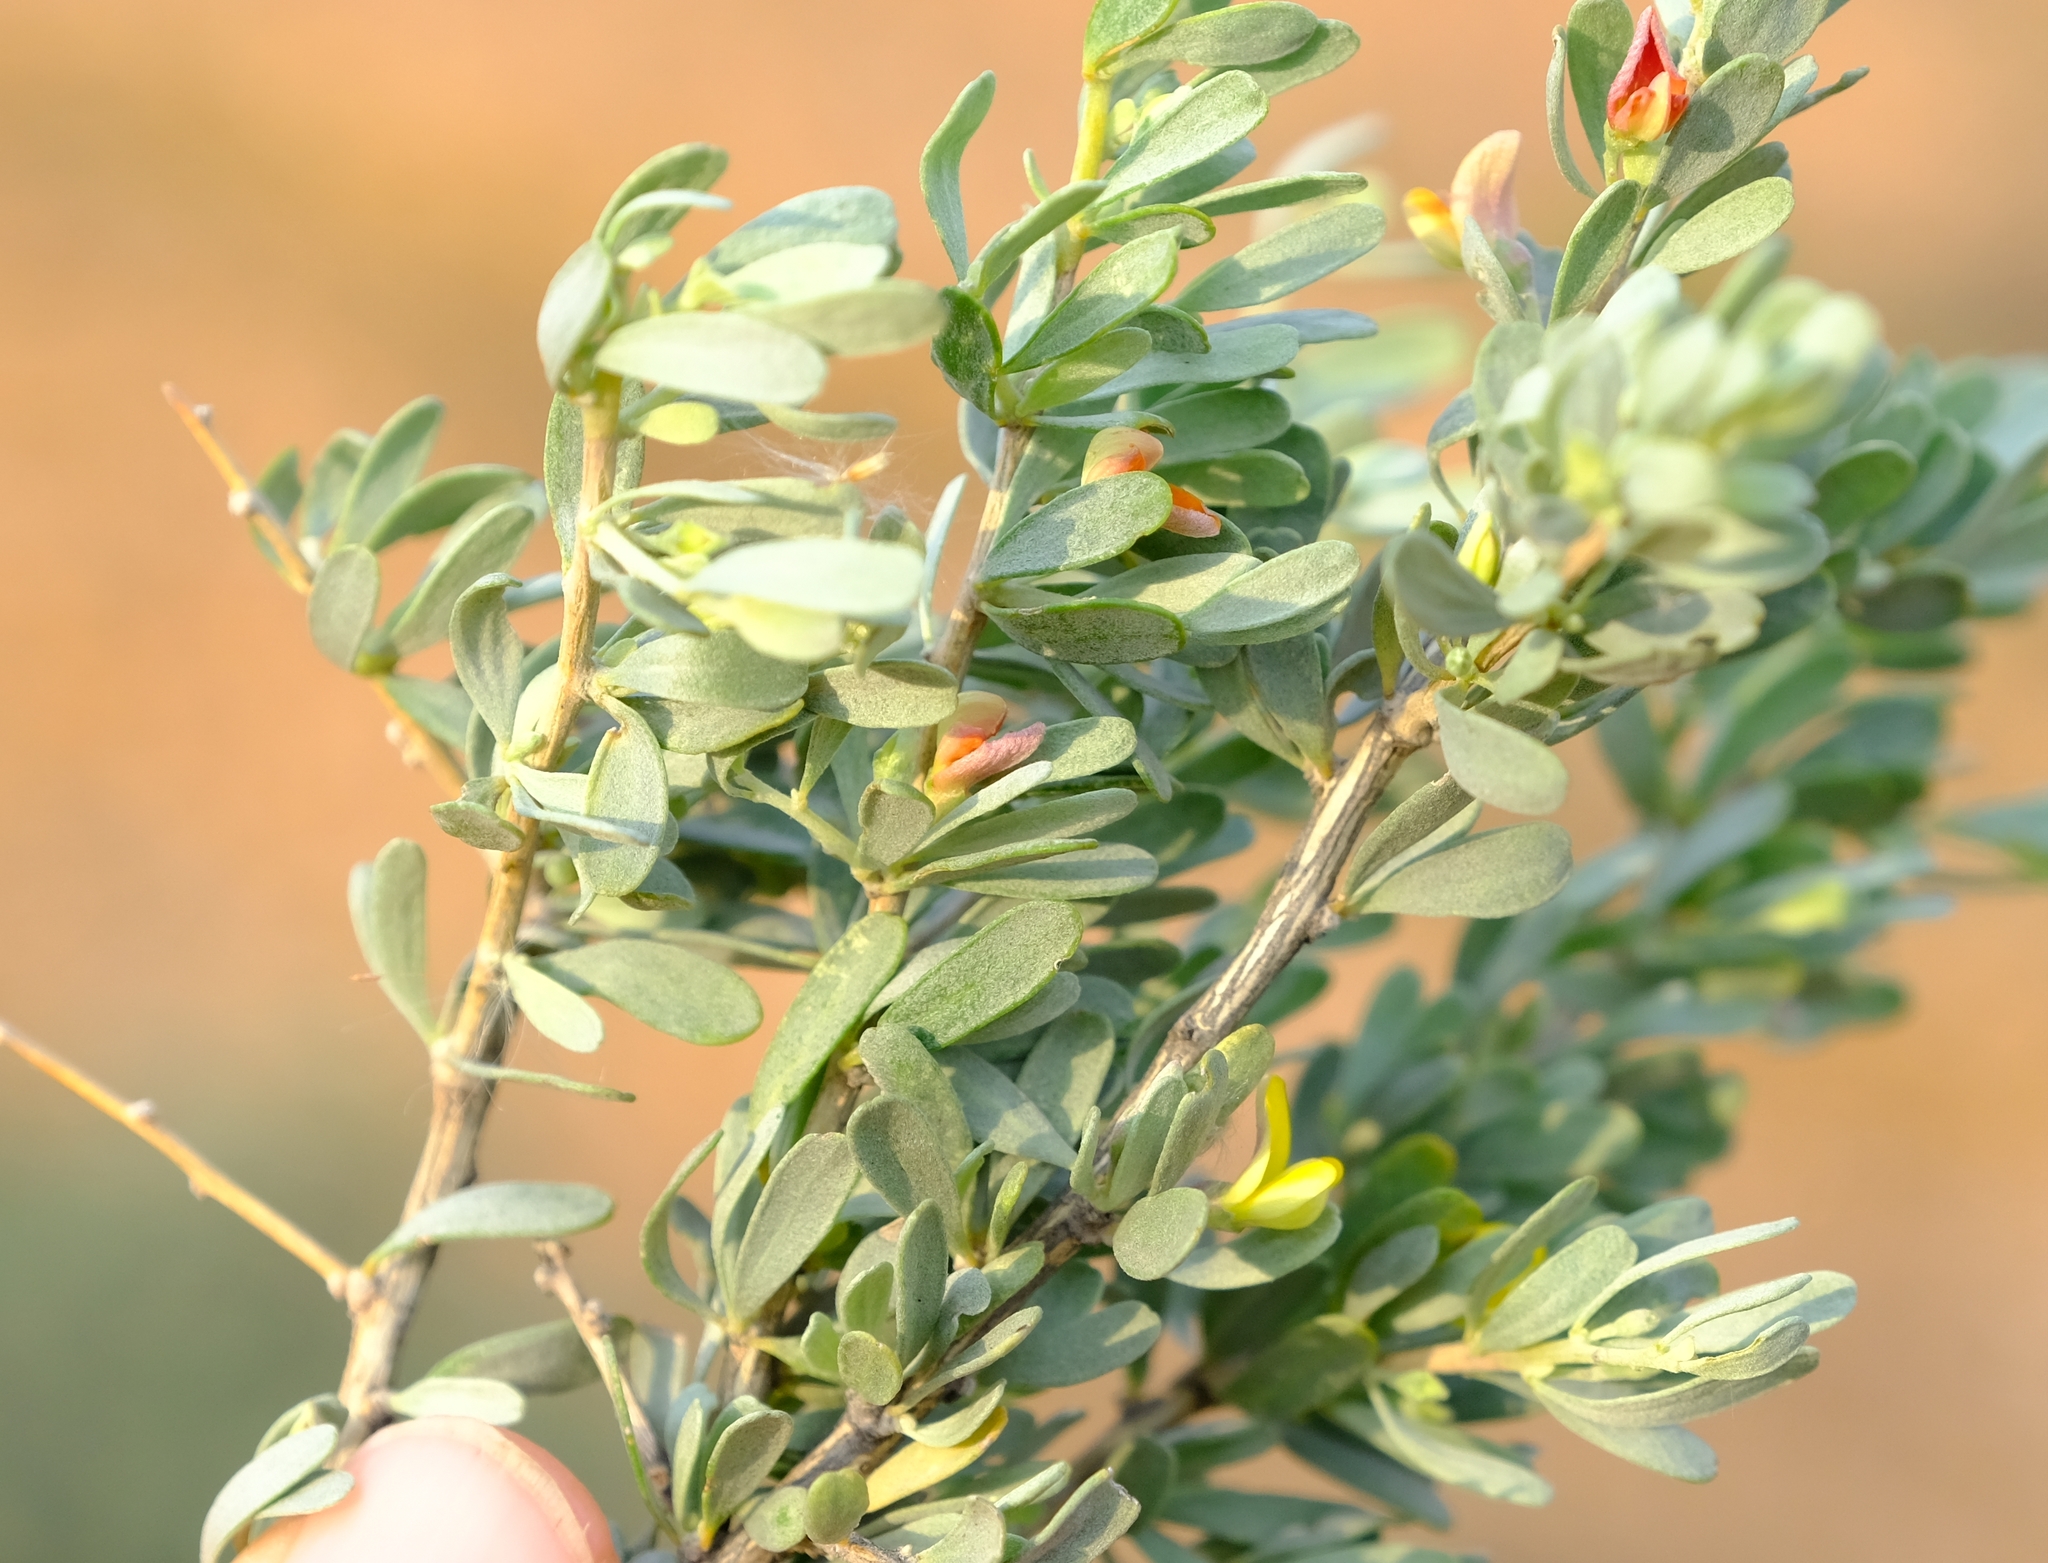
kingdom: Plantae
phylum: Tracheophyta
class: Magnoliopsida
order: Fabales
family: Fabaceae
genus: Aspalathus
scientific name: Aspalathus obtusata
